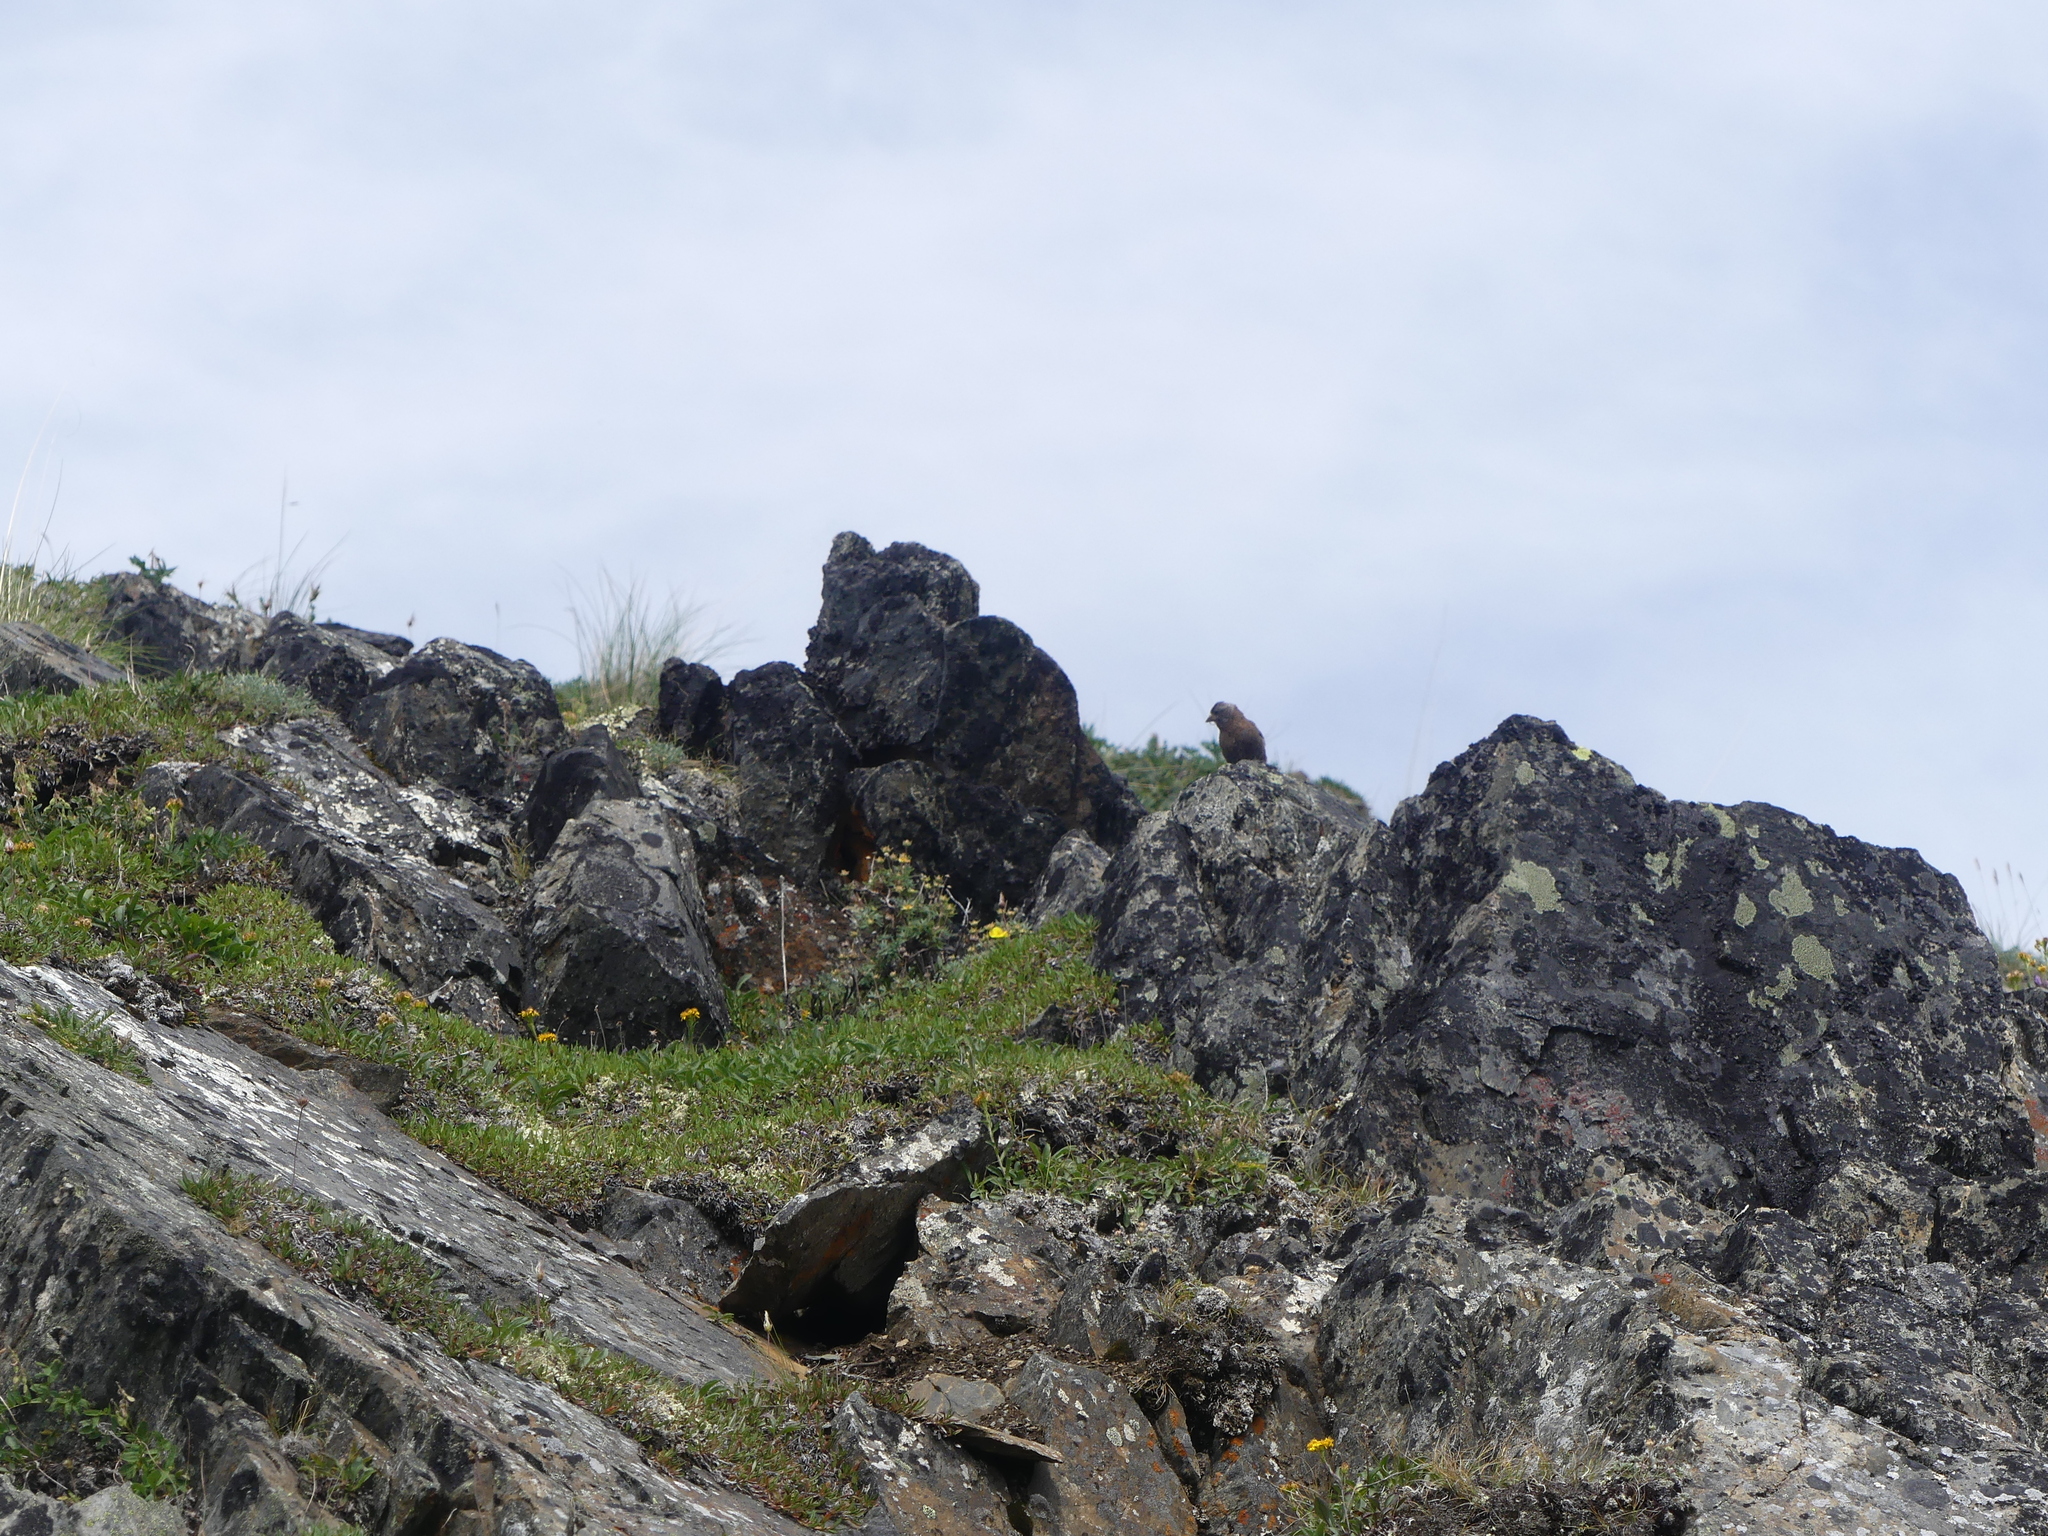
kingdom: Animalia
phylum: Chordata
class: Aves
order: Passeriformes
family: Fringillidae
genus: Leucosticte
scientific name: Leucosticte tephrocotis
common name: Gray-crowned rosy-finch
